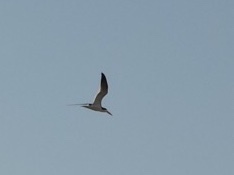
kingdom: Animalia
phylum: Chordata
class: Aves
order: Charadriiformes
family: Laridae
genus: Rynchops
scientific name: Rynchops niger
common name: Black skimmer
